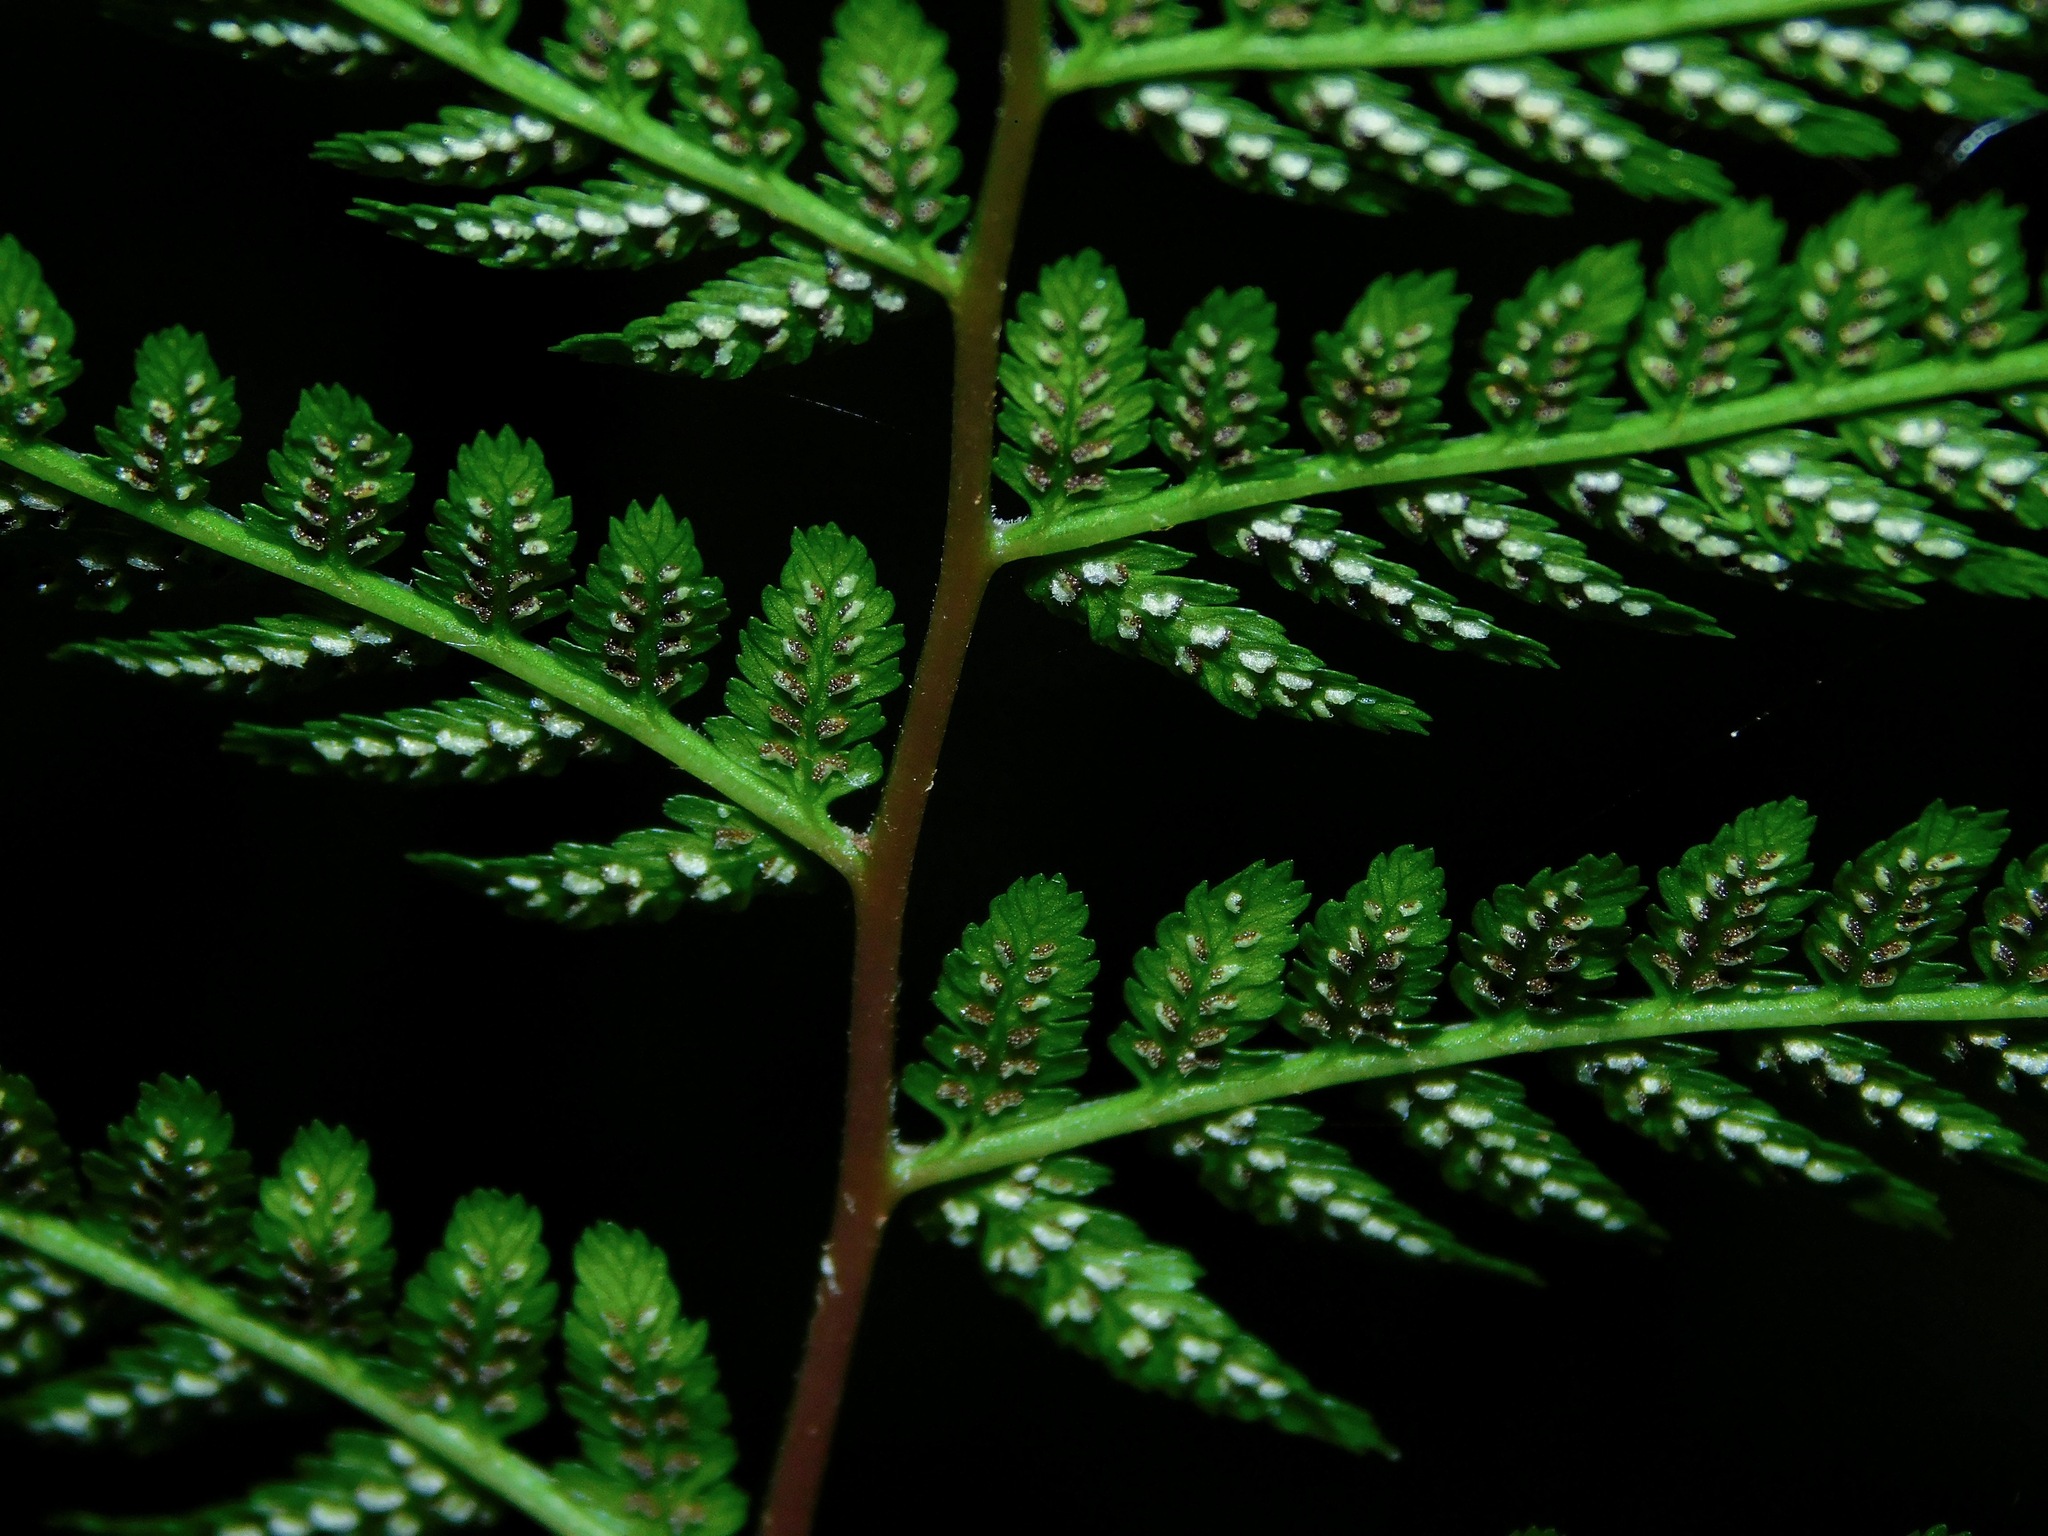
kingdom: Plantae
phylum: Tracheophyta
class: Polypodiopsida
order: Polypodiales
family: Athyriaceae
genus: Athyrium
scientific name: Athyrium asplenioides
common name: Southern lady fern
